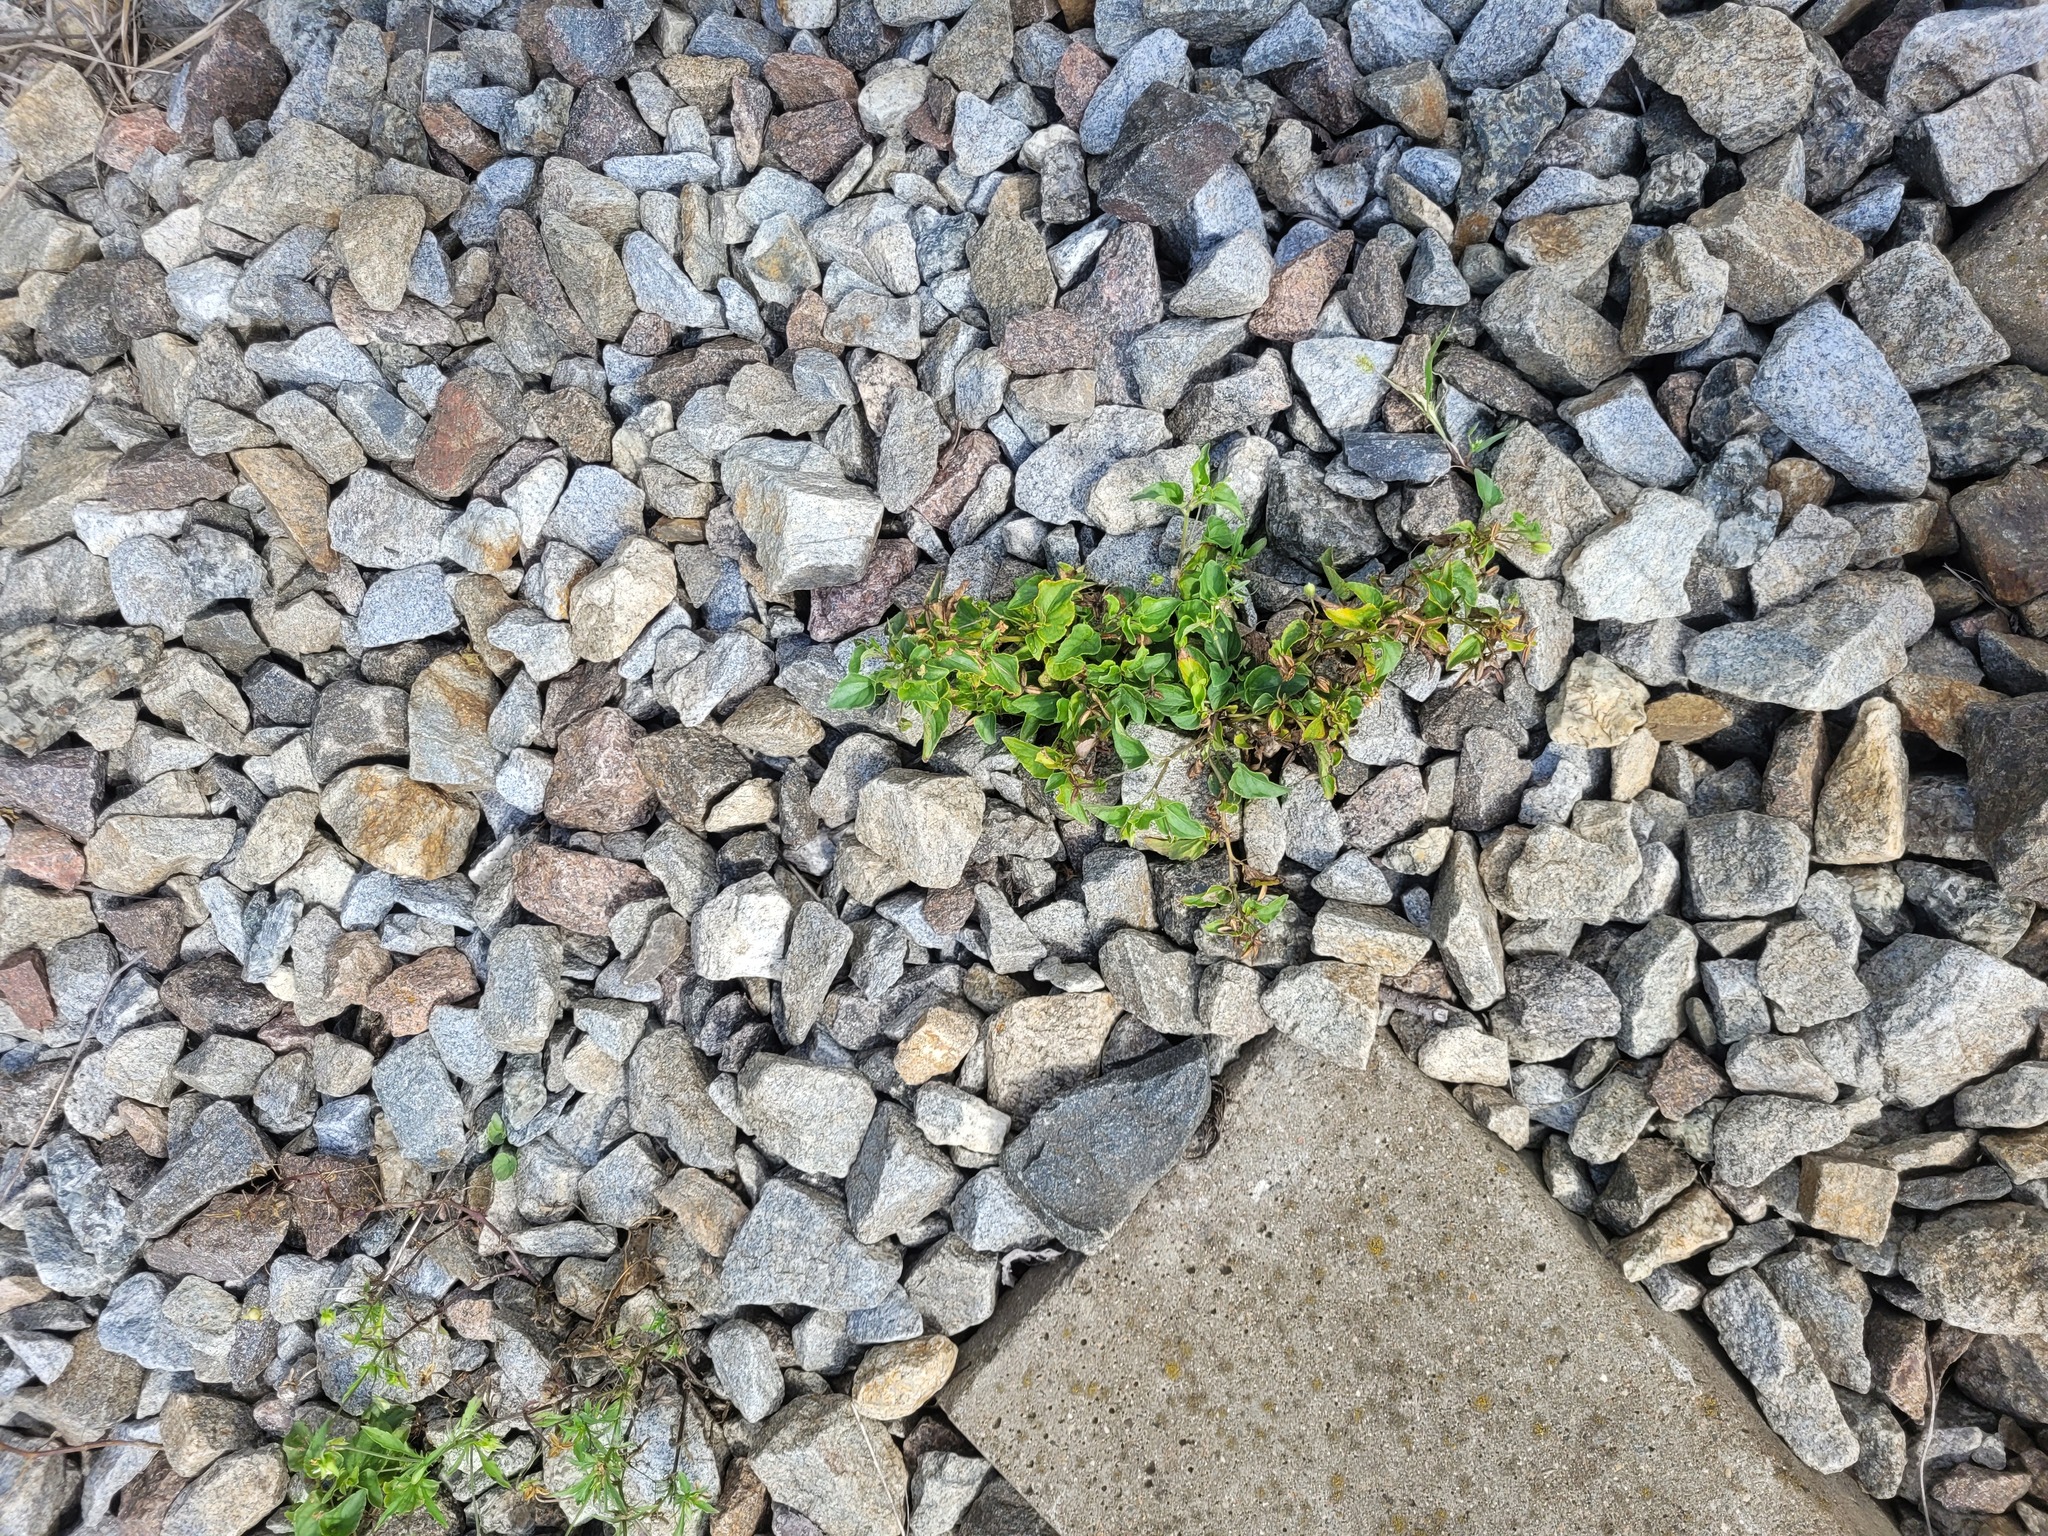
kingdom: Plantae
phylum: Tracheophyta
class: Magnoliopsida
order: Malpighiales
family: Violaceae
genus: Viola
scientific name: Viola canina
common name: Heath dog-violet
